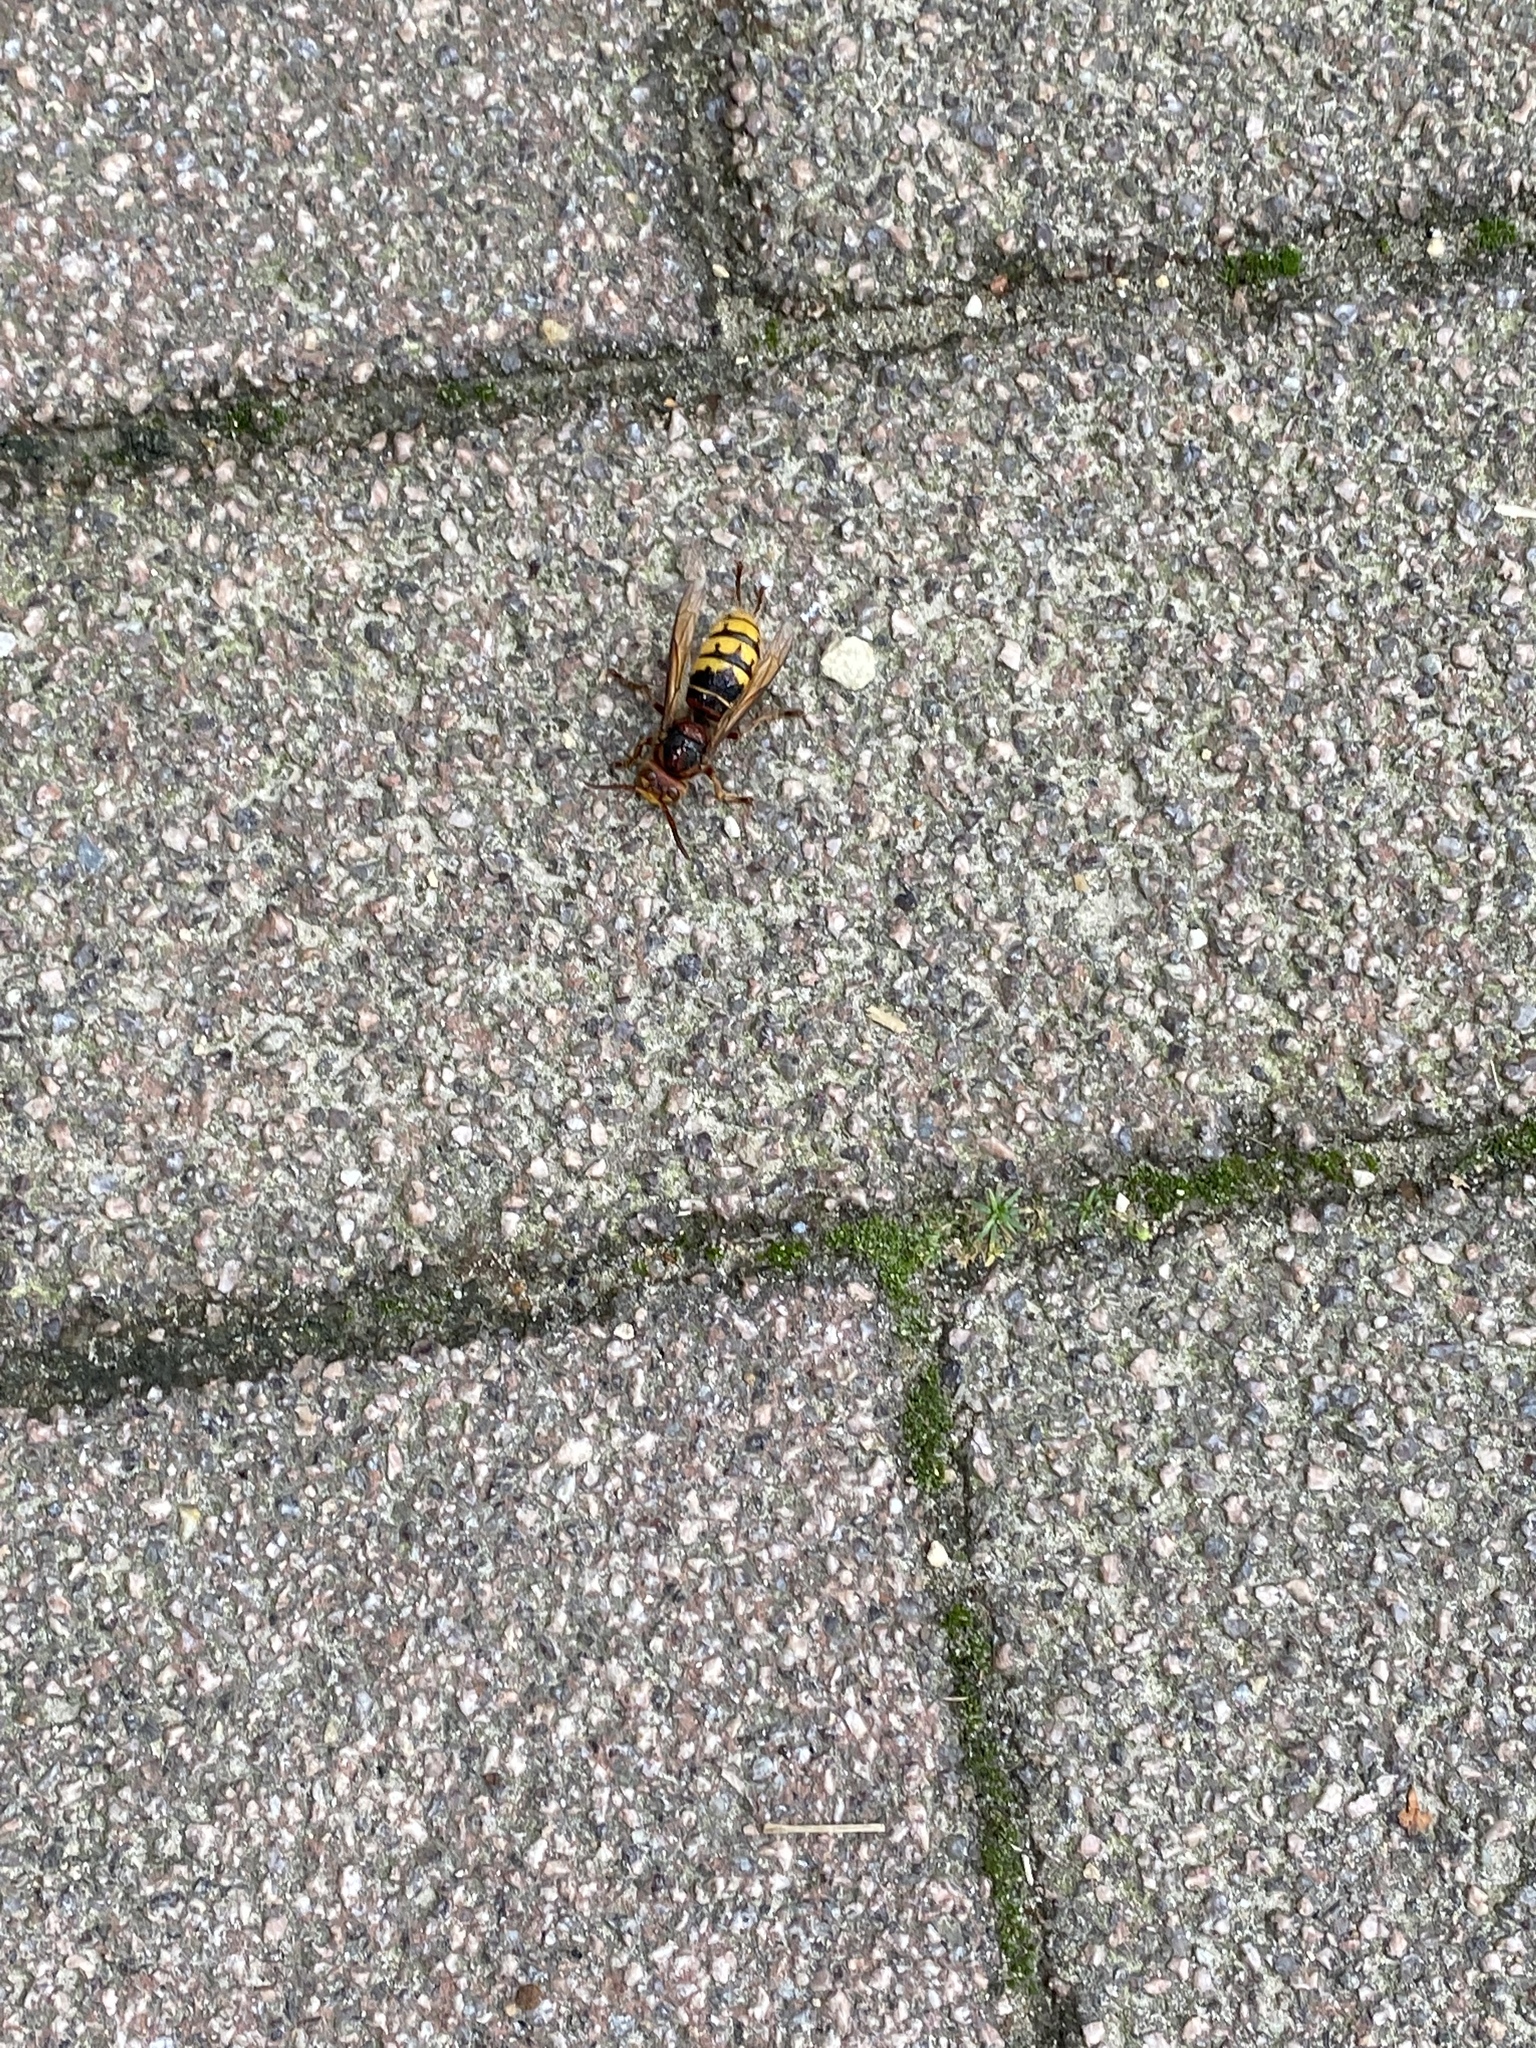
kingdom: Animalia
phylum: Arthropoda
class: Insecta
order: Hymenoptera
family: Vespidae
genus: Vespa
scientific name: Vespa crabro
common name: Hornet
